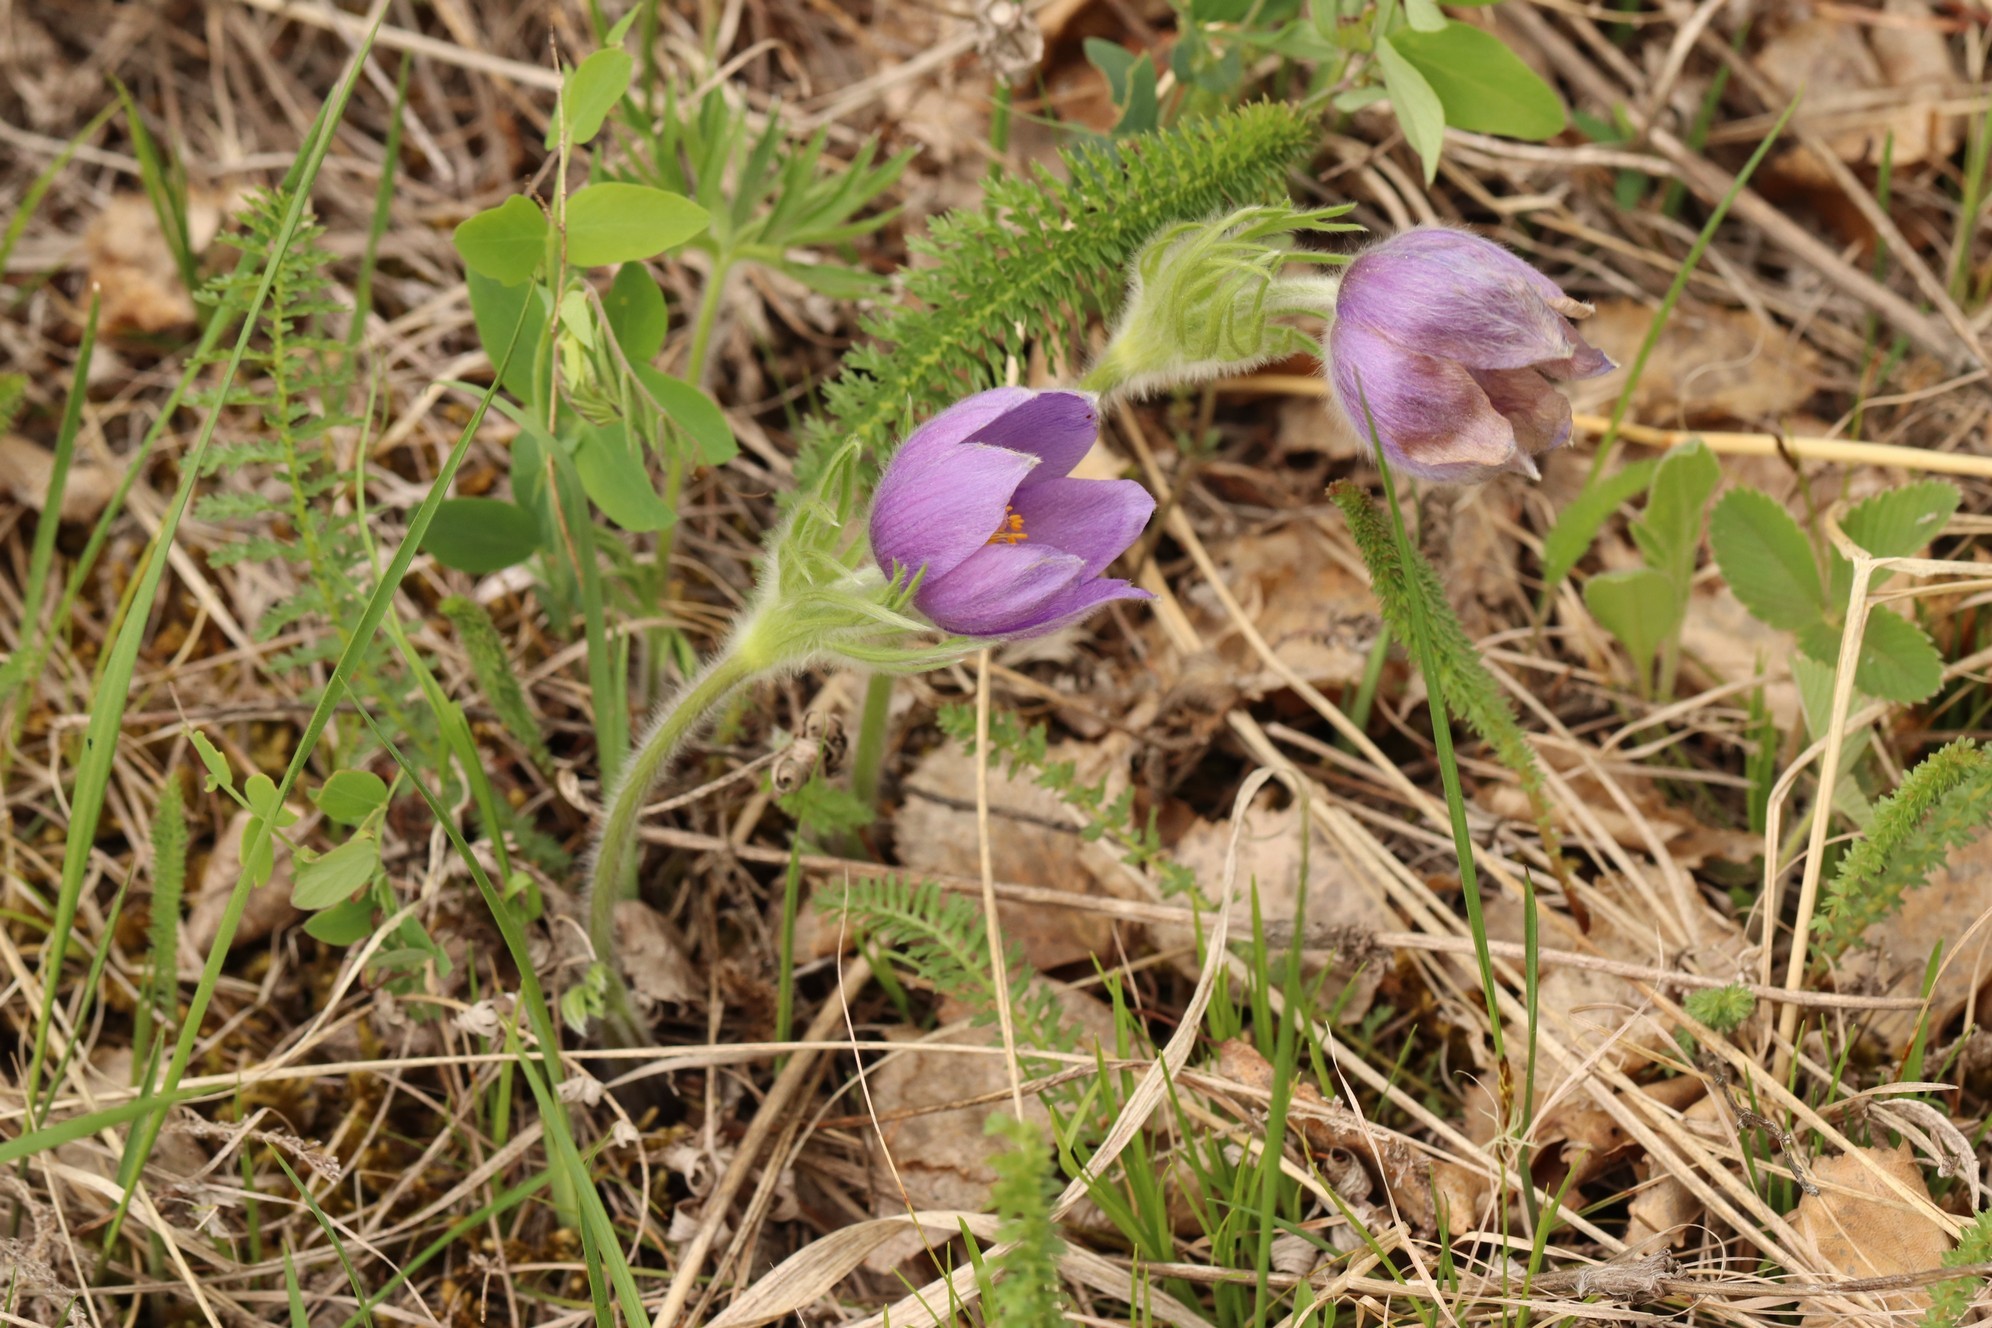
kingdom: Plantae
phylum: Tracheophyta
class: Magnoliopsida
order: Ranunculales
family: Ranunculaceae
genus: Pulsatilla
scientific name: Pulsatilla patens
